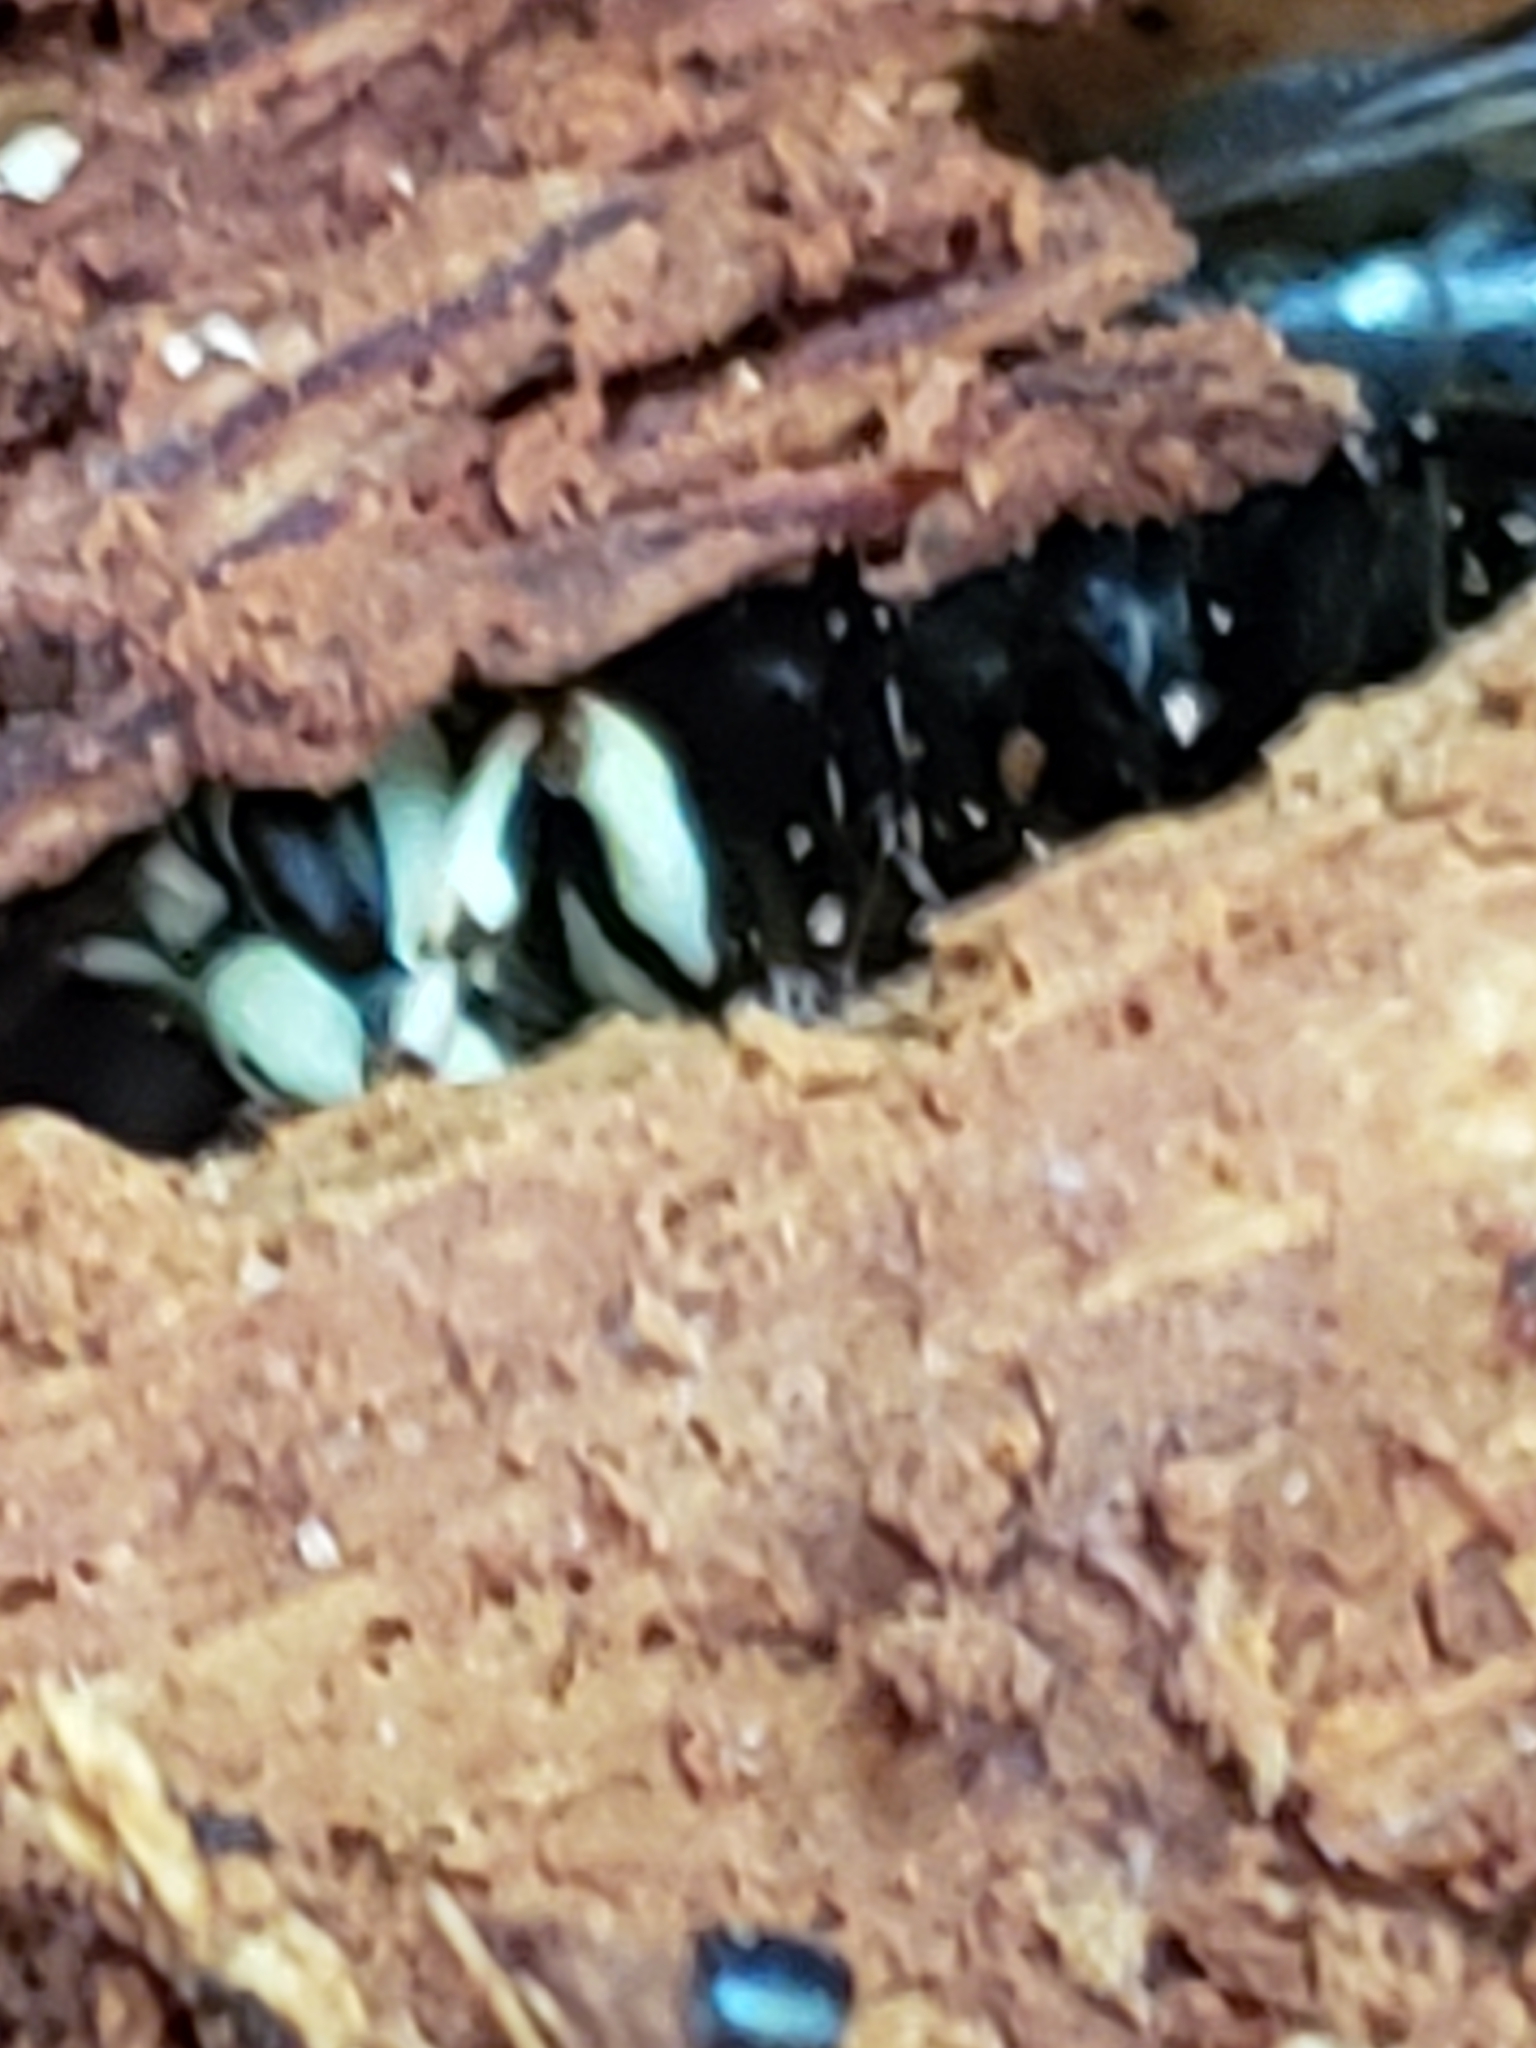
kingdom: Animalia
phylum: Arthropoda
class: Insecta
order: Hymenoptera
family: Vespidae
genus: Dolichovespula
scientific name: Dolichovespula maculata
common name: Bald-faced hornet
